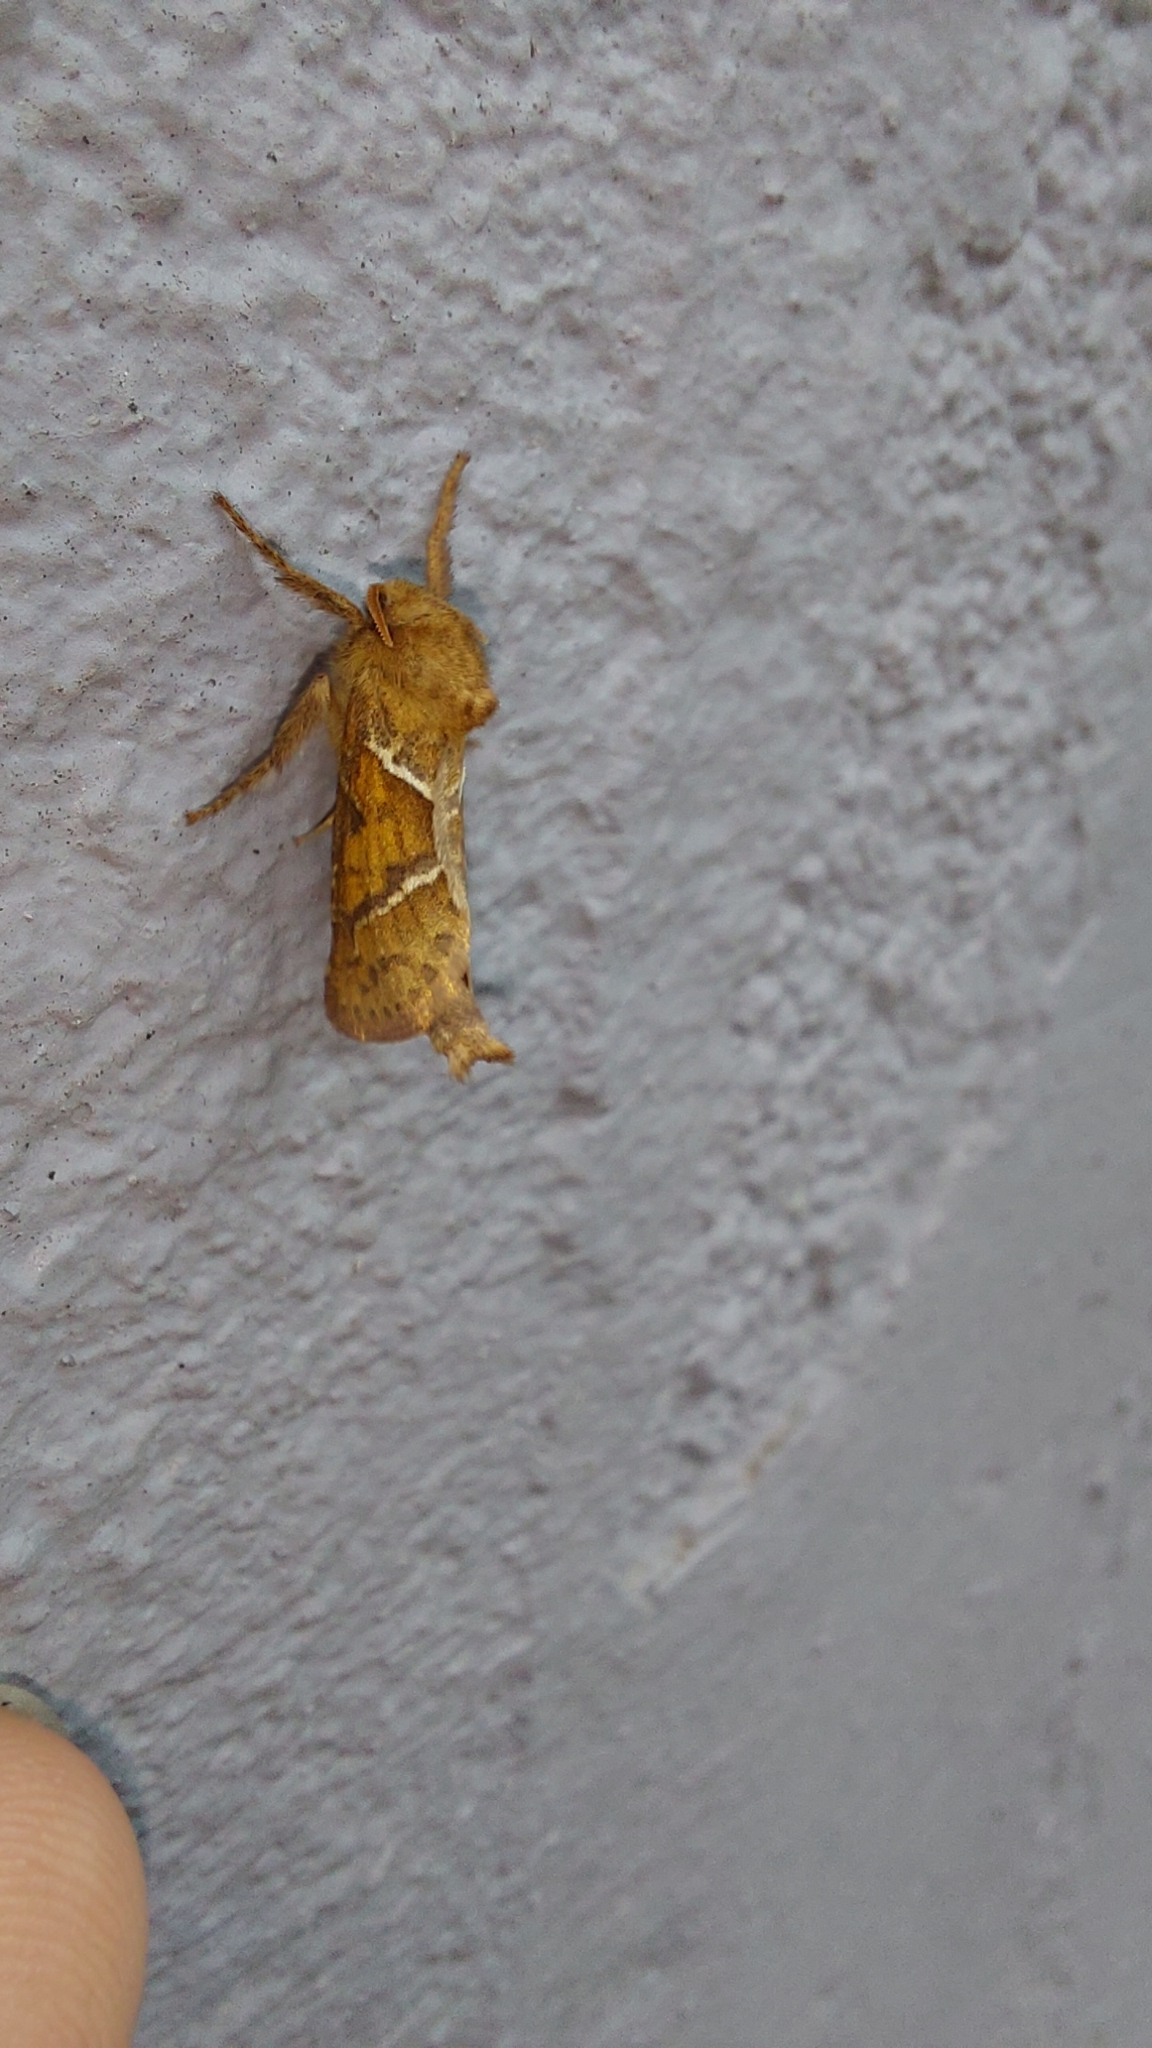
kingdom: Animalia
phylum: Arthropoda
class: Insecta
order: Lepidoptera
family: Hepialidae
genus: Triodia
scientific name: Triodia sylvina
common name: Orange swift
